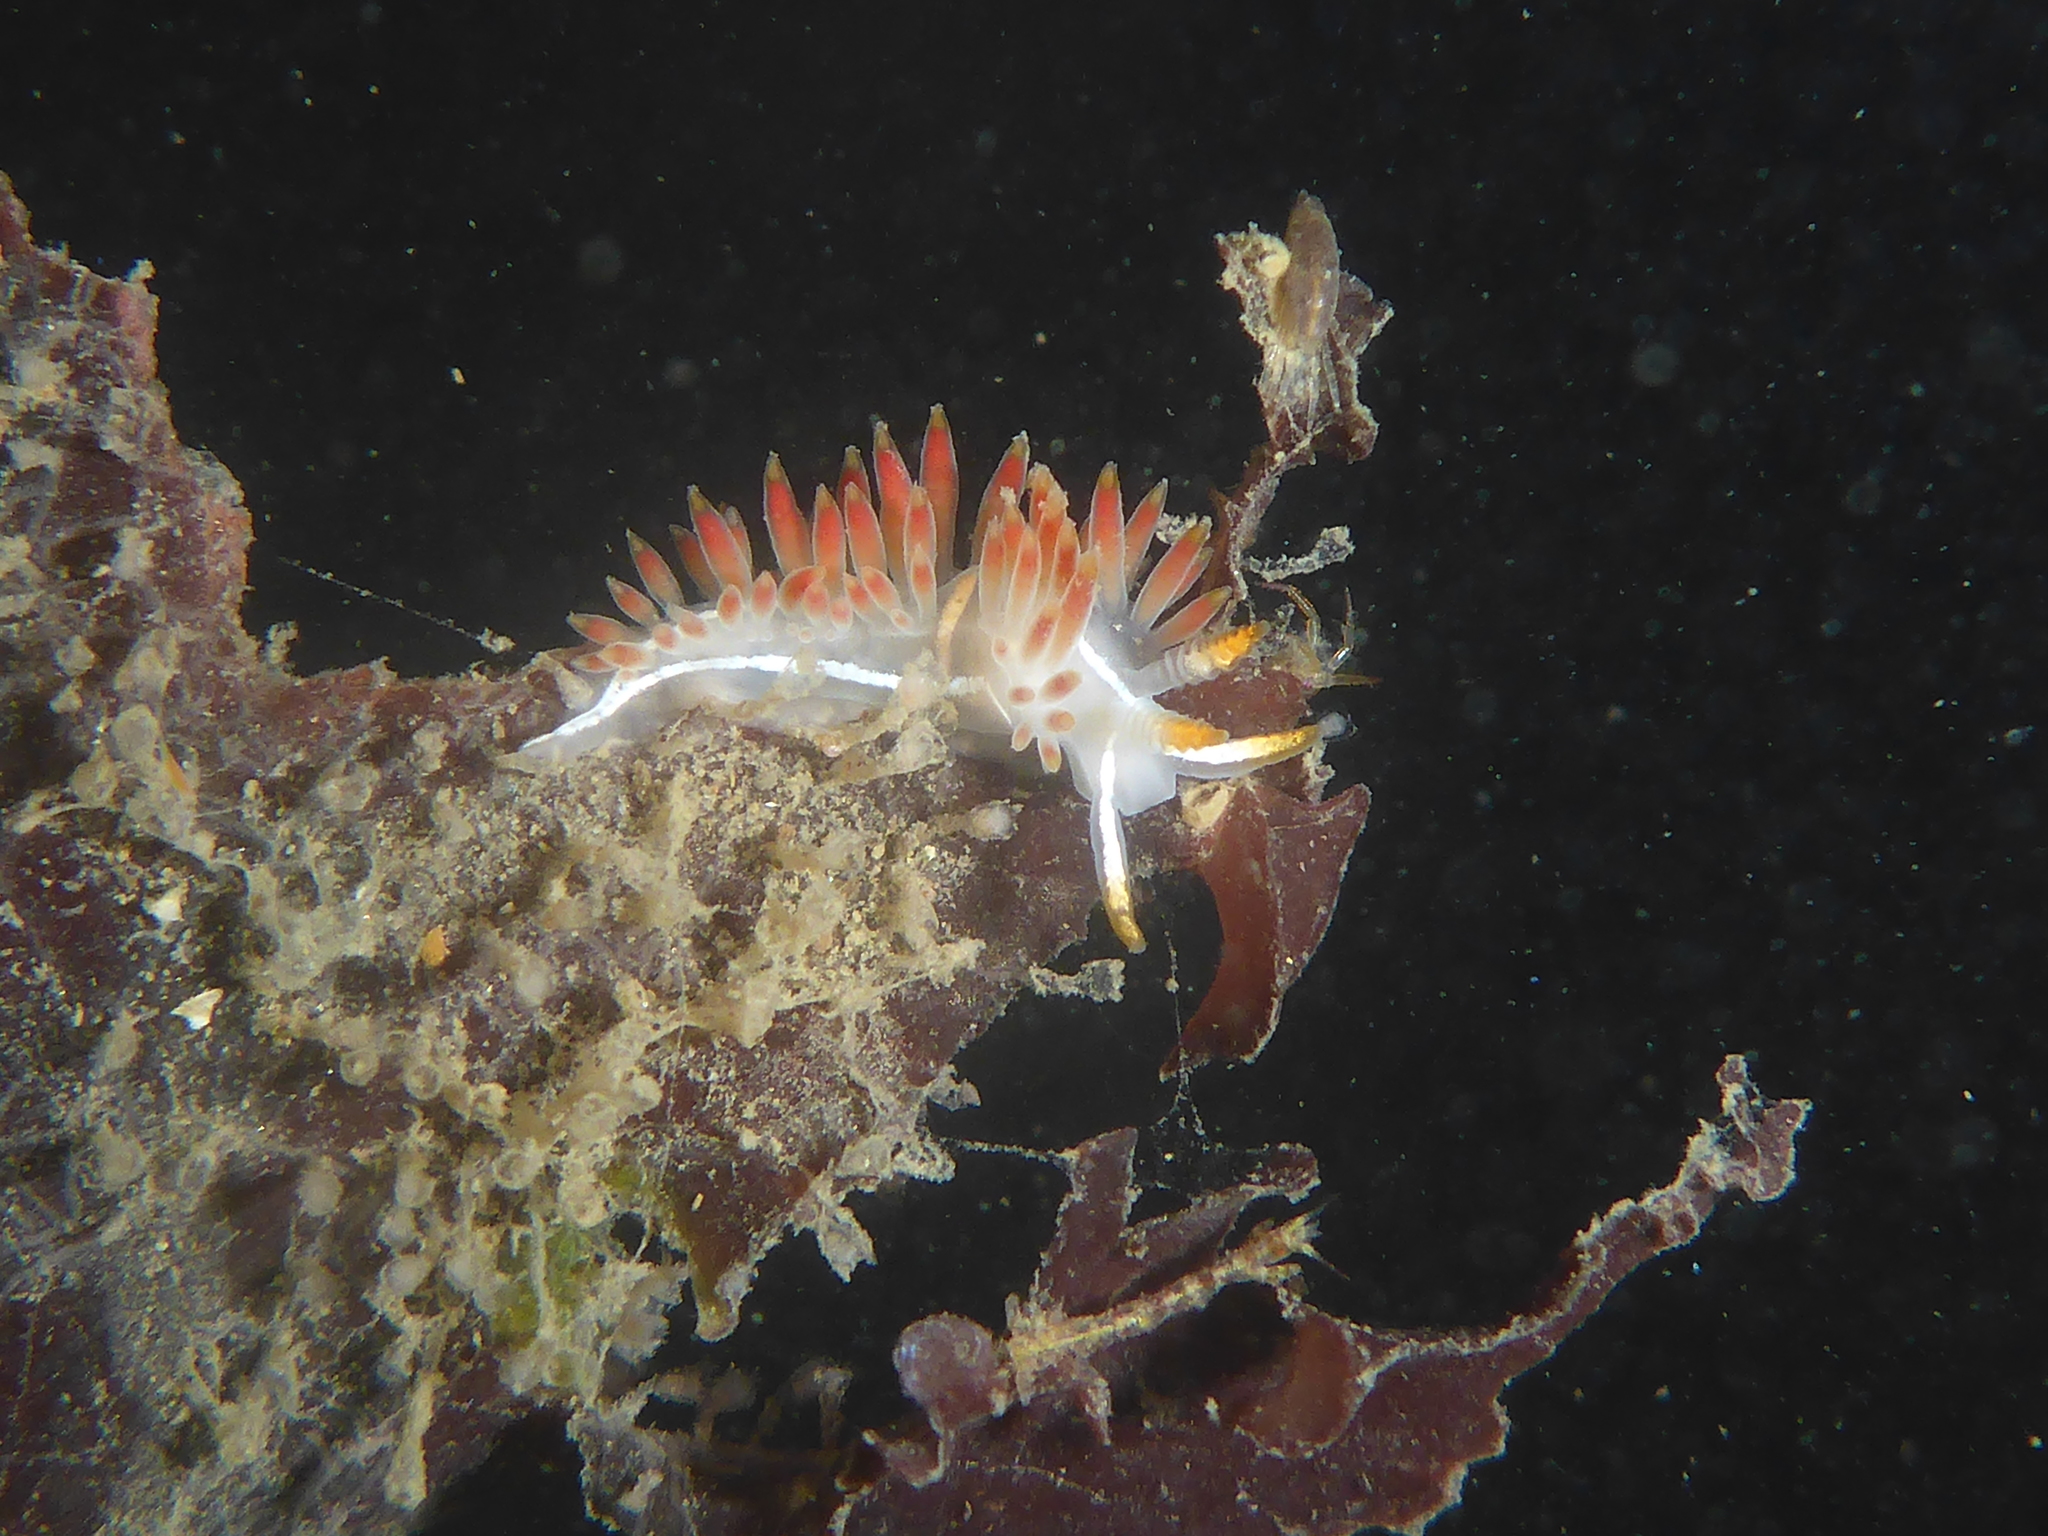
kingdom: Animalia
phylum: Mollusca
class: Gastropoda
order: Nudibranchia
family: Coryphellidae
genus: Coryphella
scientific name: Coryphella trilineata
